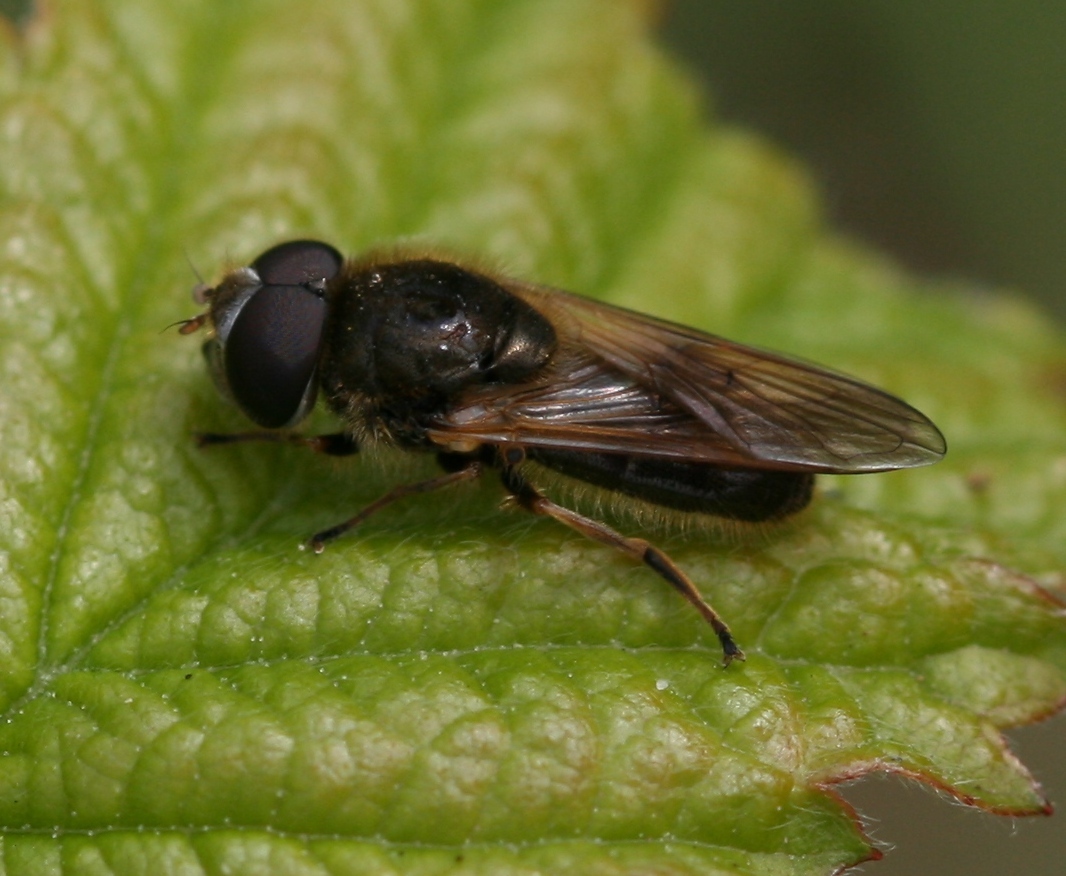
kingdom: Animalia
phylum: Arthropoda
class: Insecta
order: Diptera
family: Syrphidae
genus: Cheilosia
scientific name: Cheilosia nebulosa
